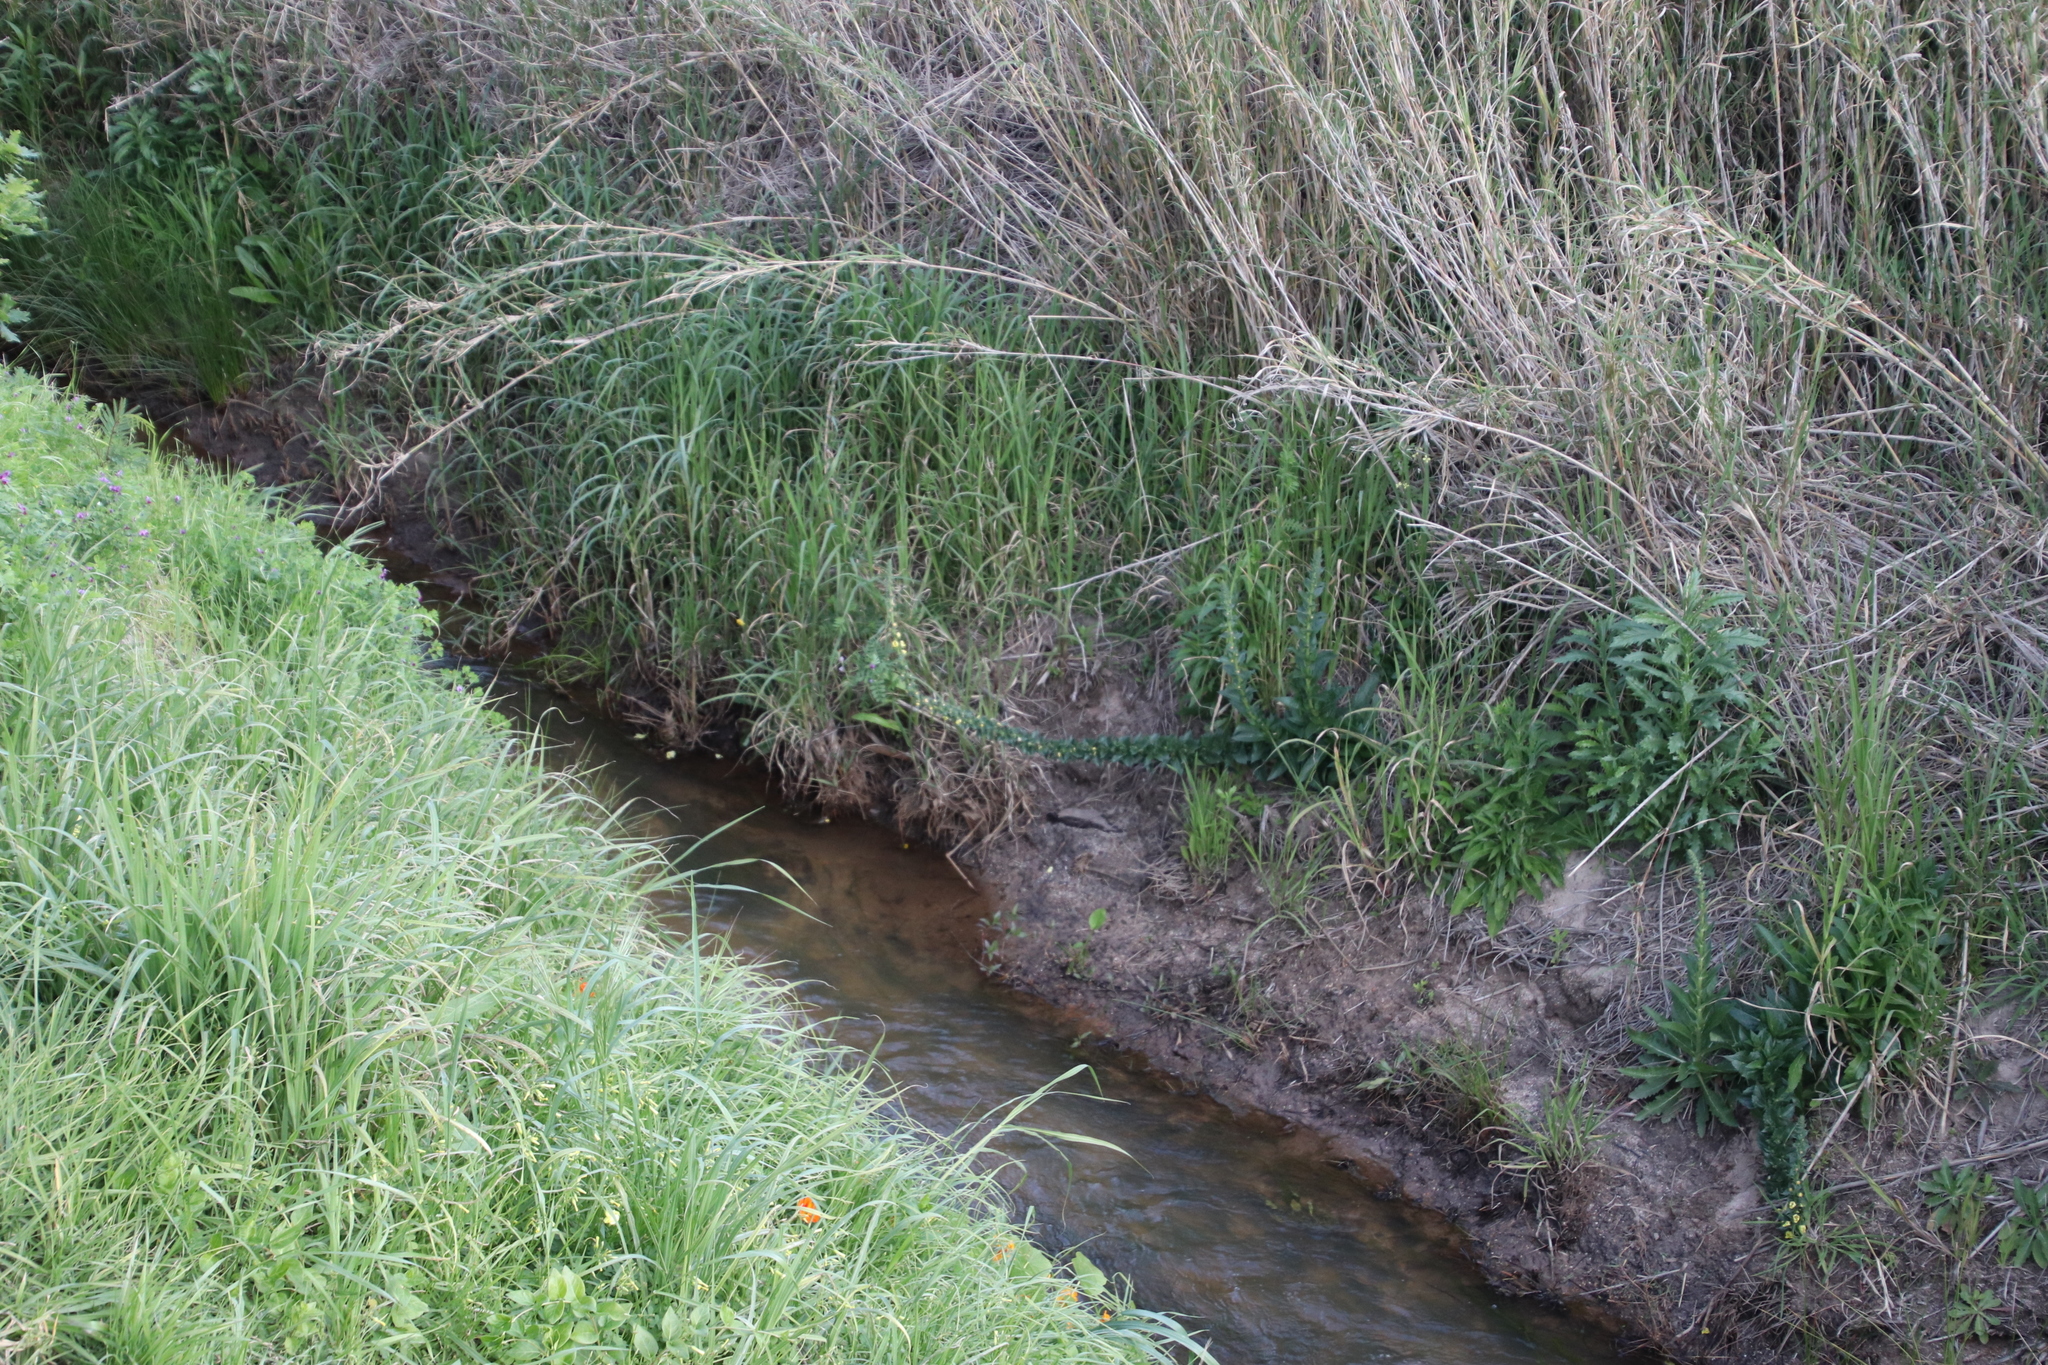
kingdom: Plantae
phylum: Tracheophyta
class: Magnoliopsida
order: Lamiales
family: Scrophulariaceae
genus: Verbascum
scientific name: Verbascum virgatum
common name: Twiggy mullein
